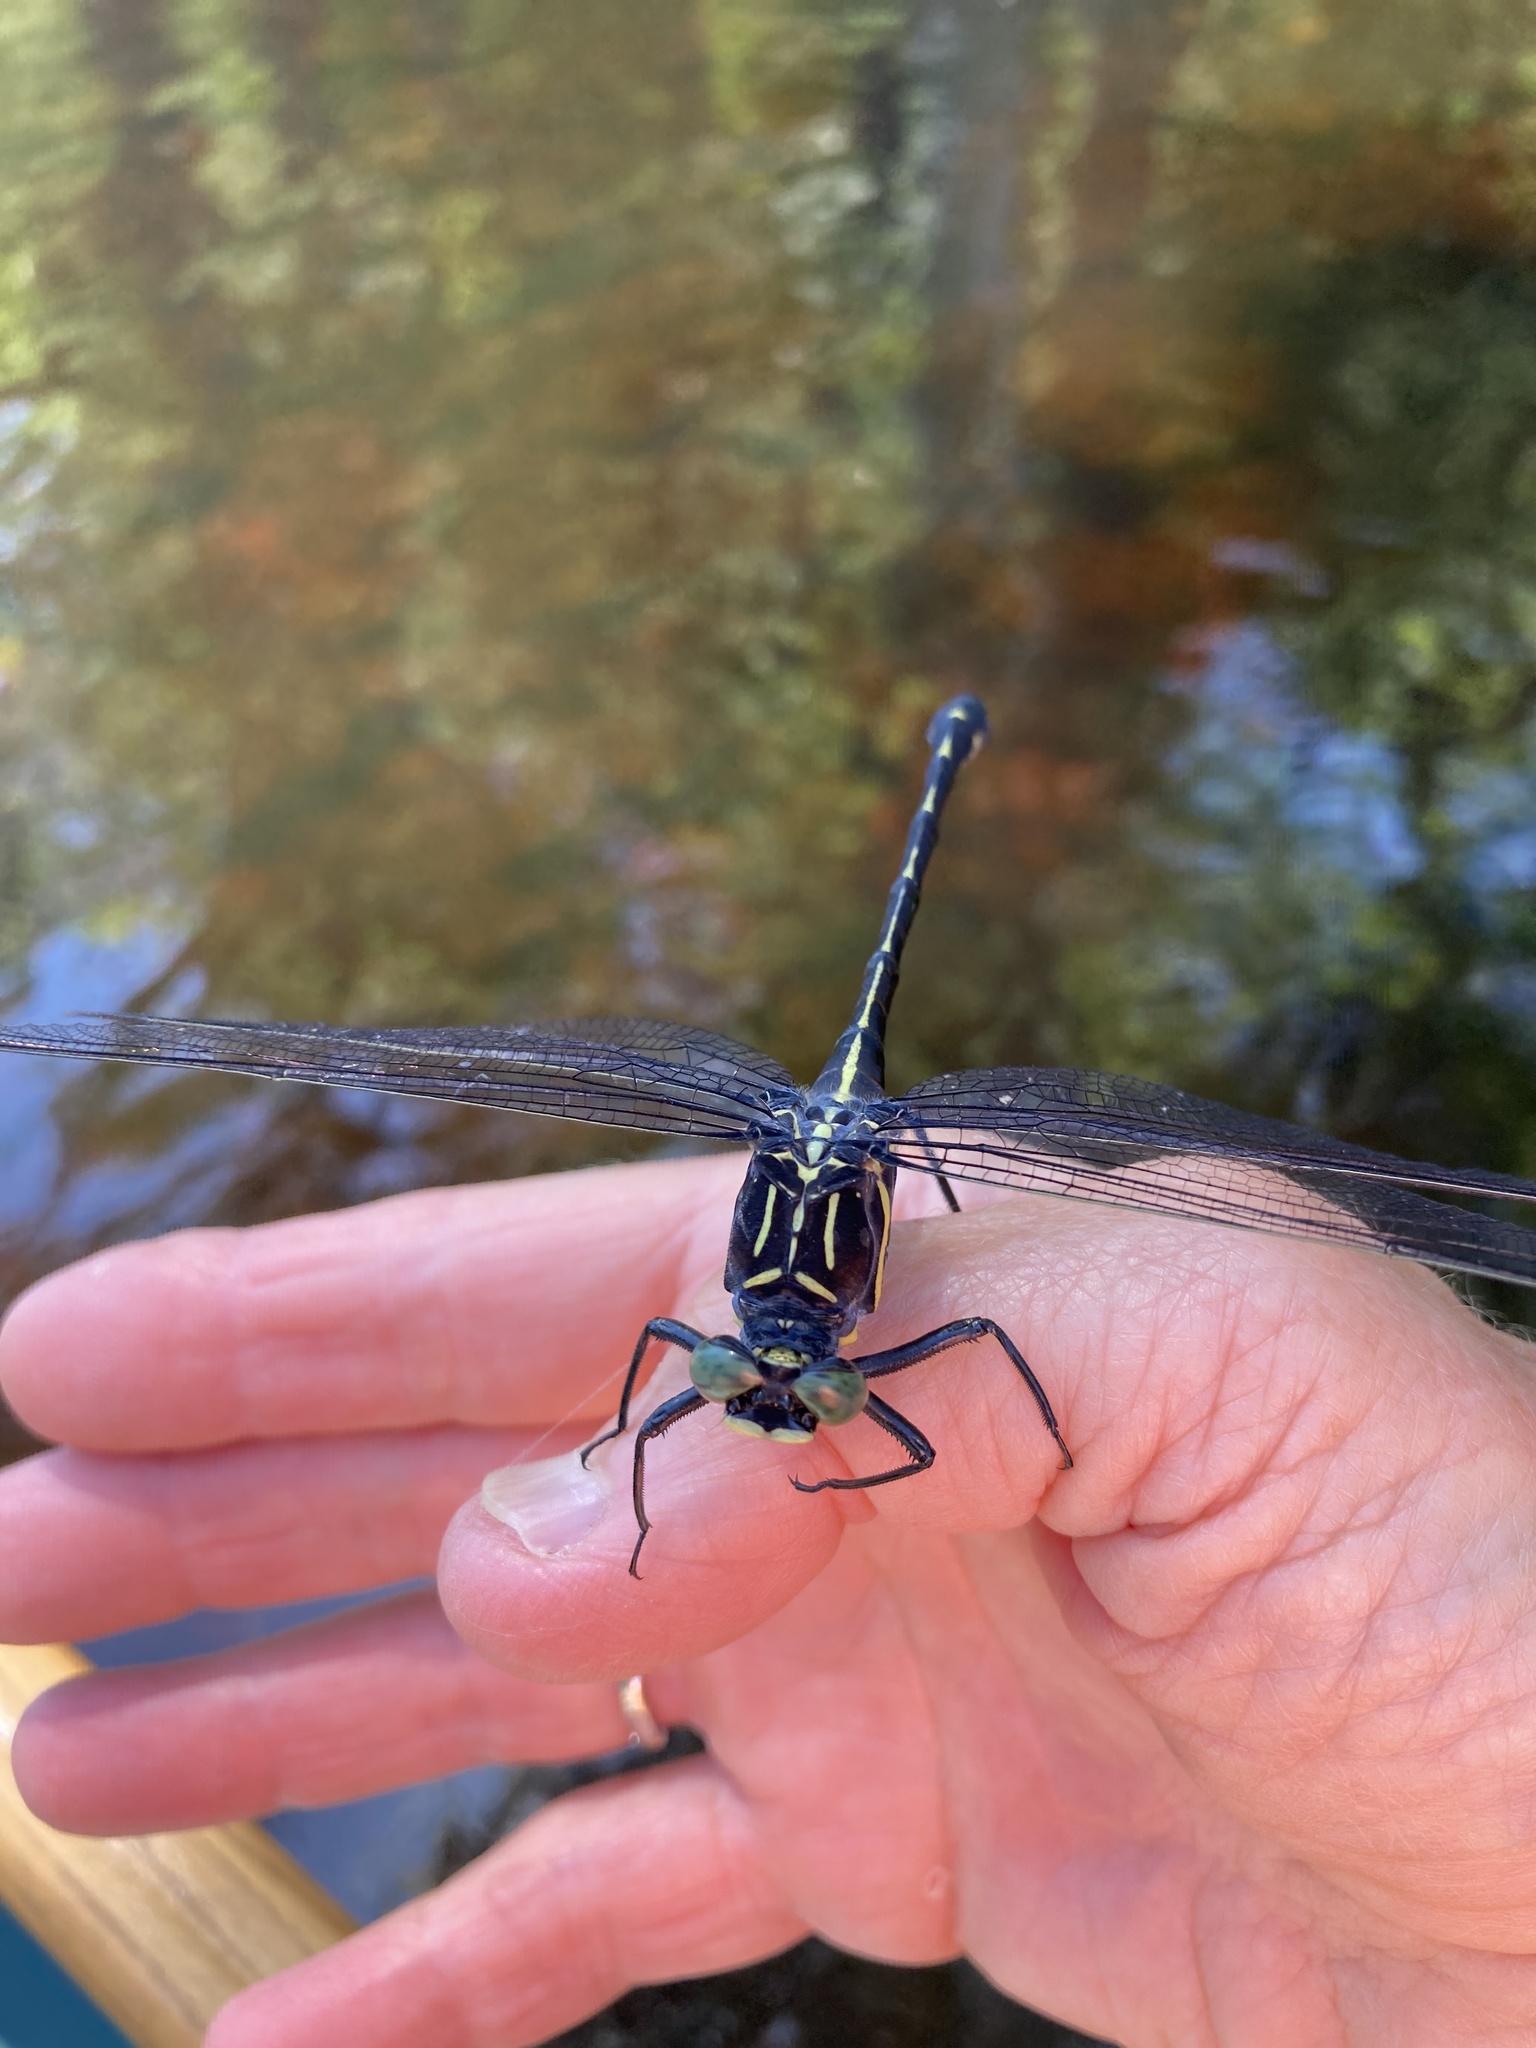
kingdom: Animalia
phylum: Arthropoda
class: Insecta
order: Odonata
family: Gomphidae
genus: Hagenius
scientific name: Hagenius brevistylus
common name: Dragonhunter
